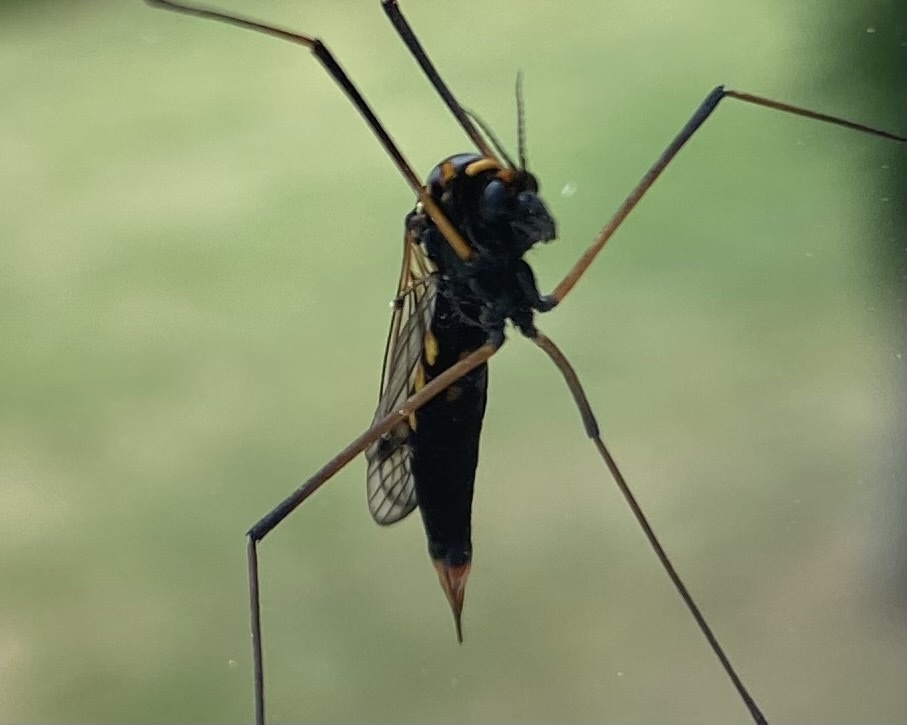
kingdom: Animalia
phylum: Arthropoda
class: Insecta
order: Diptera
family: Tipulidae
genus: Nephrotoma
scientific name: Nephrotoma crocata
